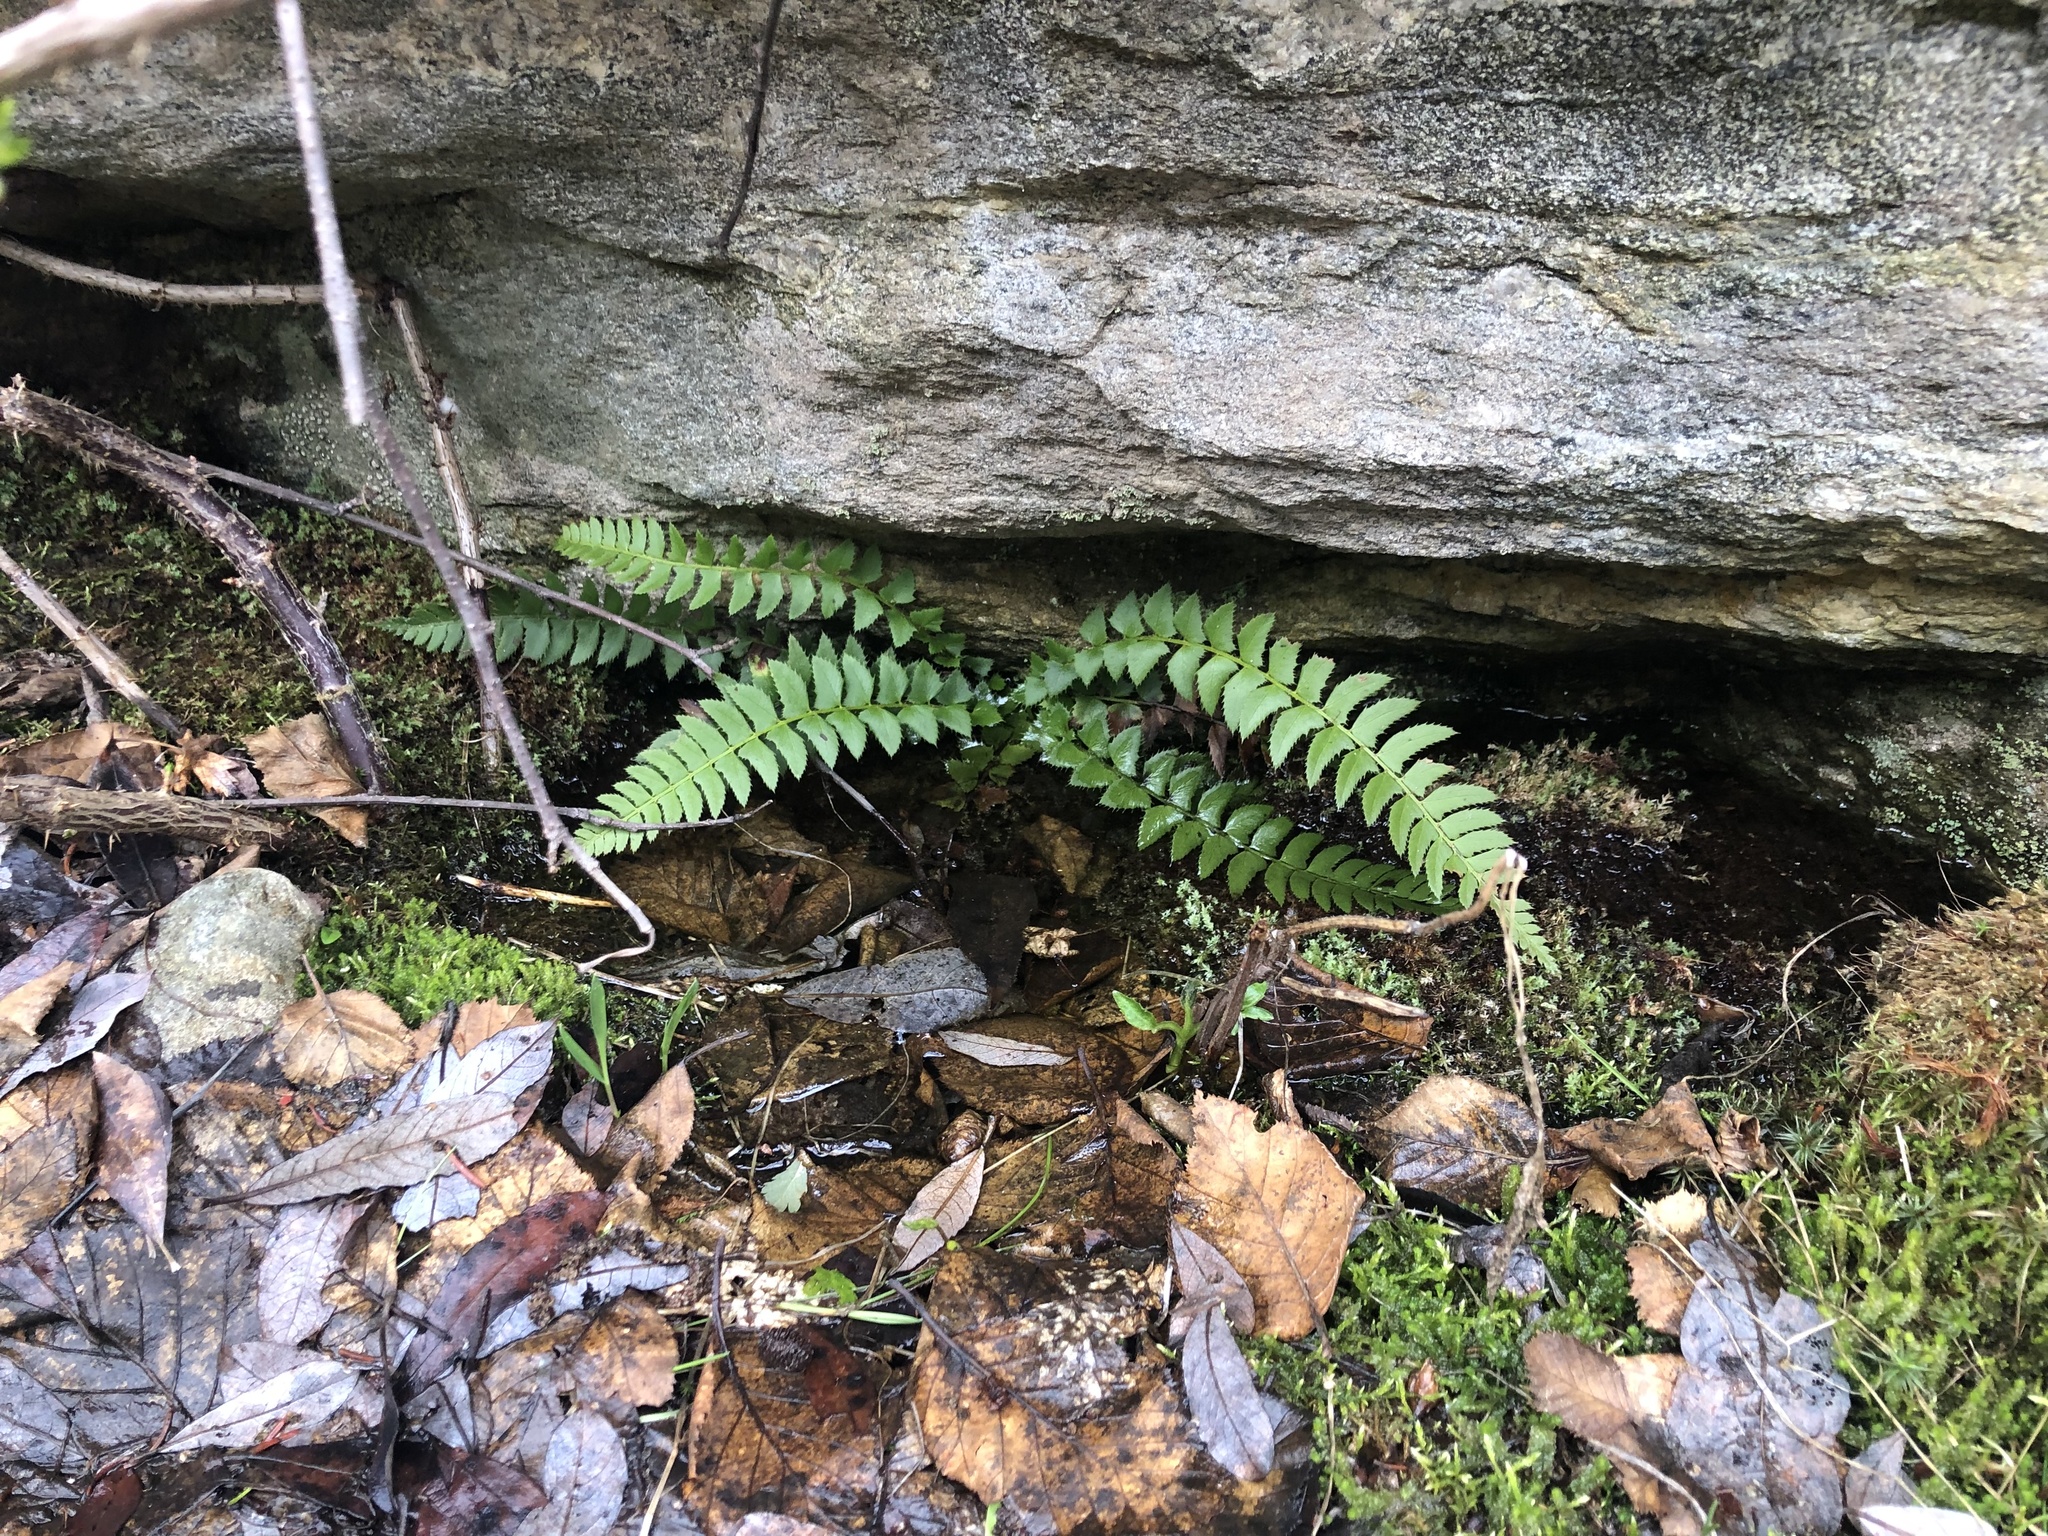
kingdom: Plantae
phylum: Tracheophyta
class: Polypodiopsida
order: Polypodiales
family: Dryopteridaceae
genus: Polystichum
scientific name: Polystichum lonchitis
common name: Holly fern
